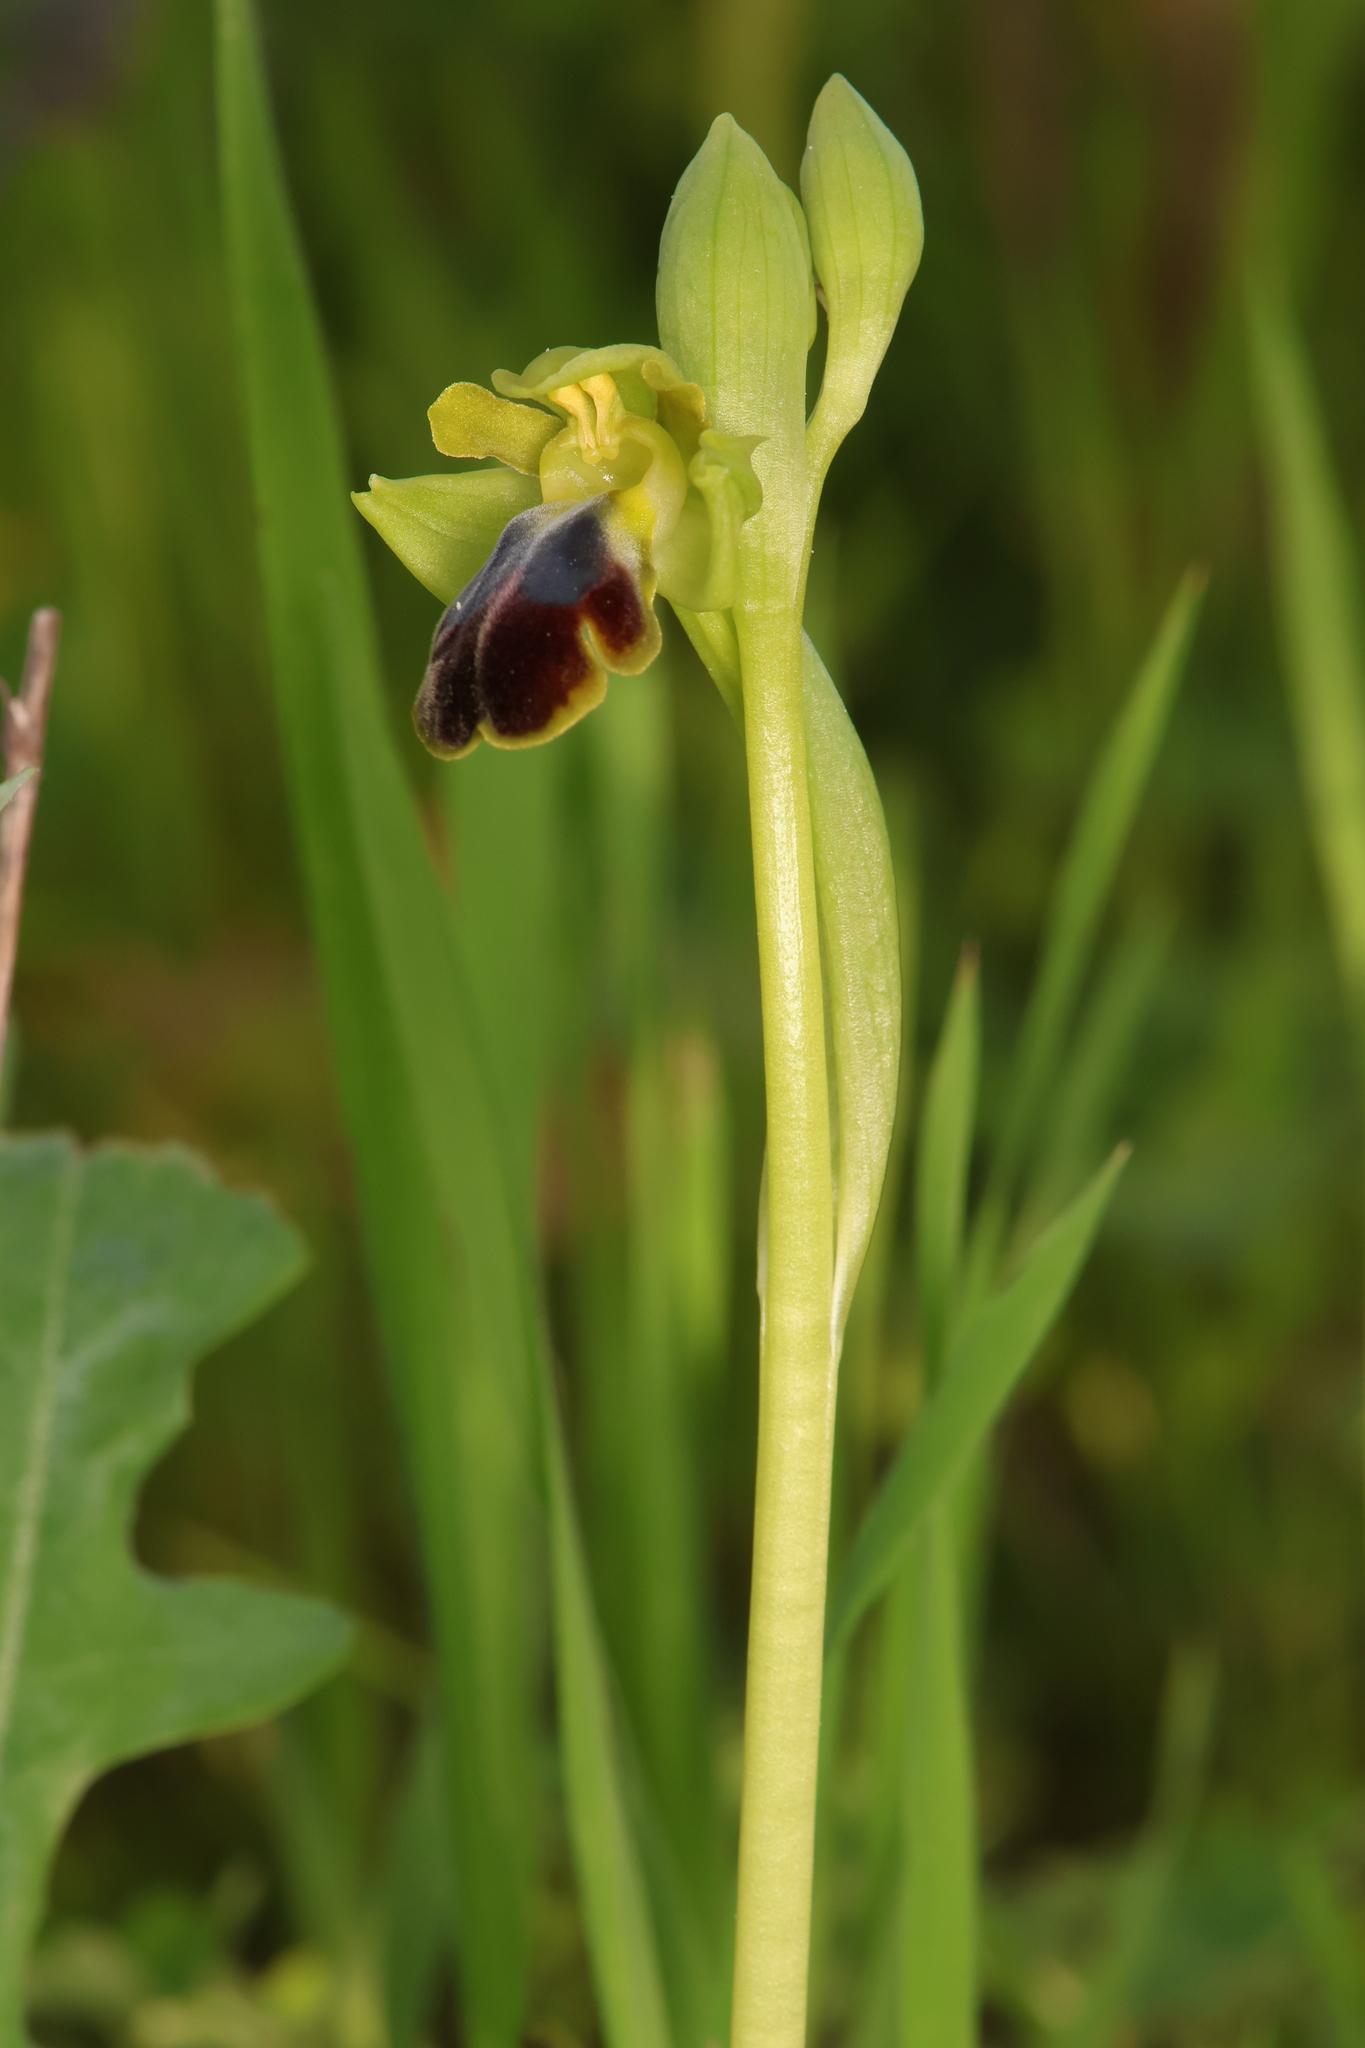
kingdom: Plantae
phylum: Tracheophyta
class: Liliopsida
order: Asparagales
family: Orchidaceae
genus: Ophrys
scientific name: Ophrys fusca
